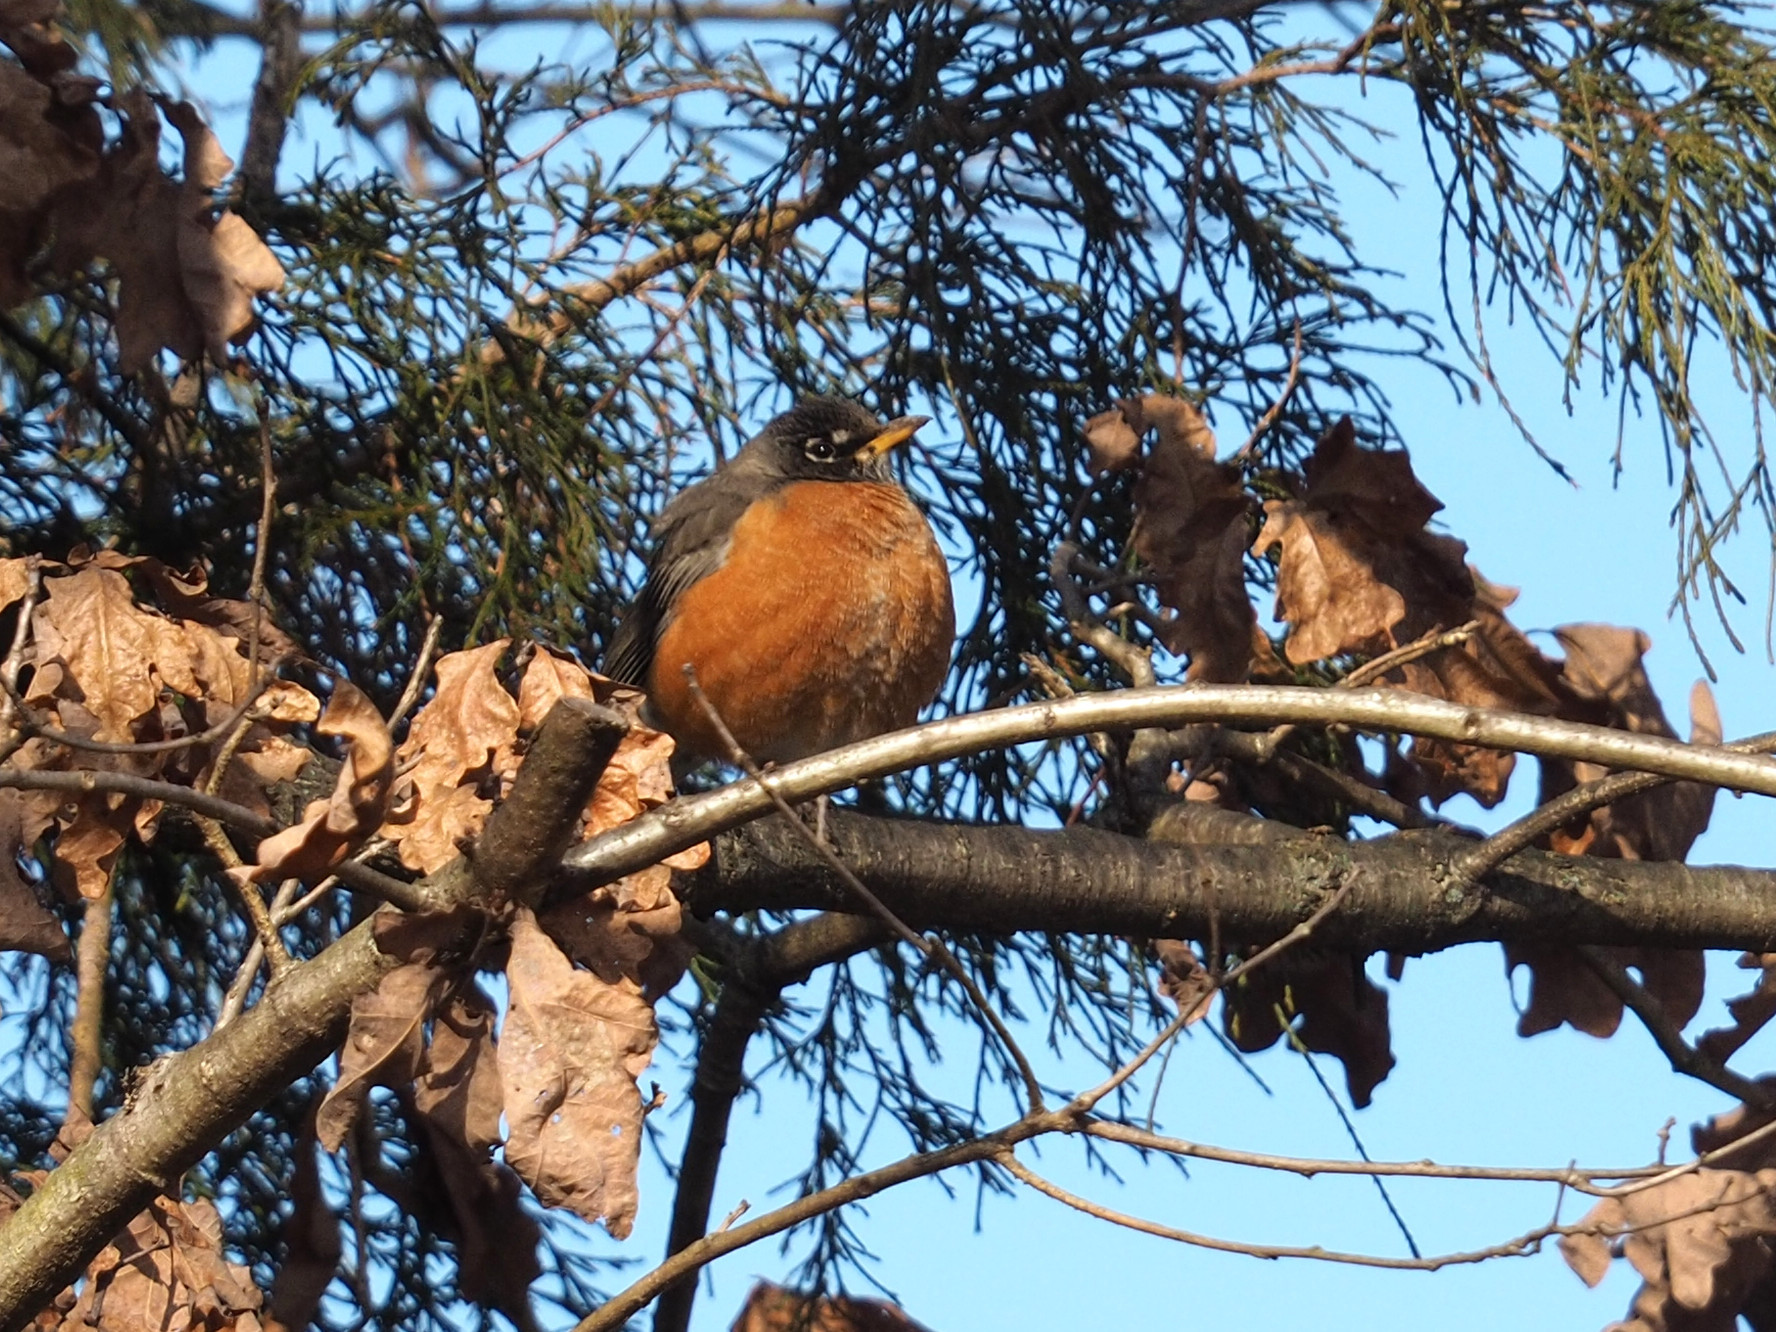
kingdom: Animalia
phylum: Chordata
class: Aves
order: Passeriformes
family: Turdidae
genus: Turdus
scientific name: Turdus migratorius
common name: American robin
